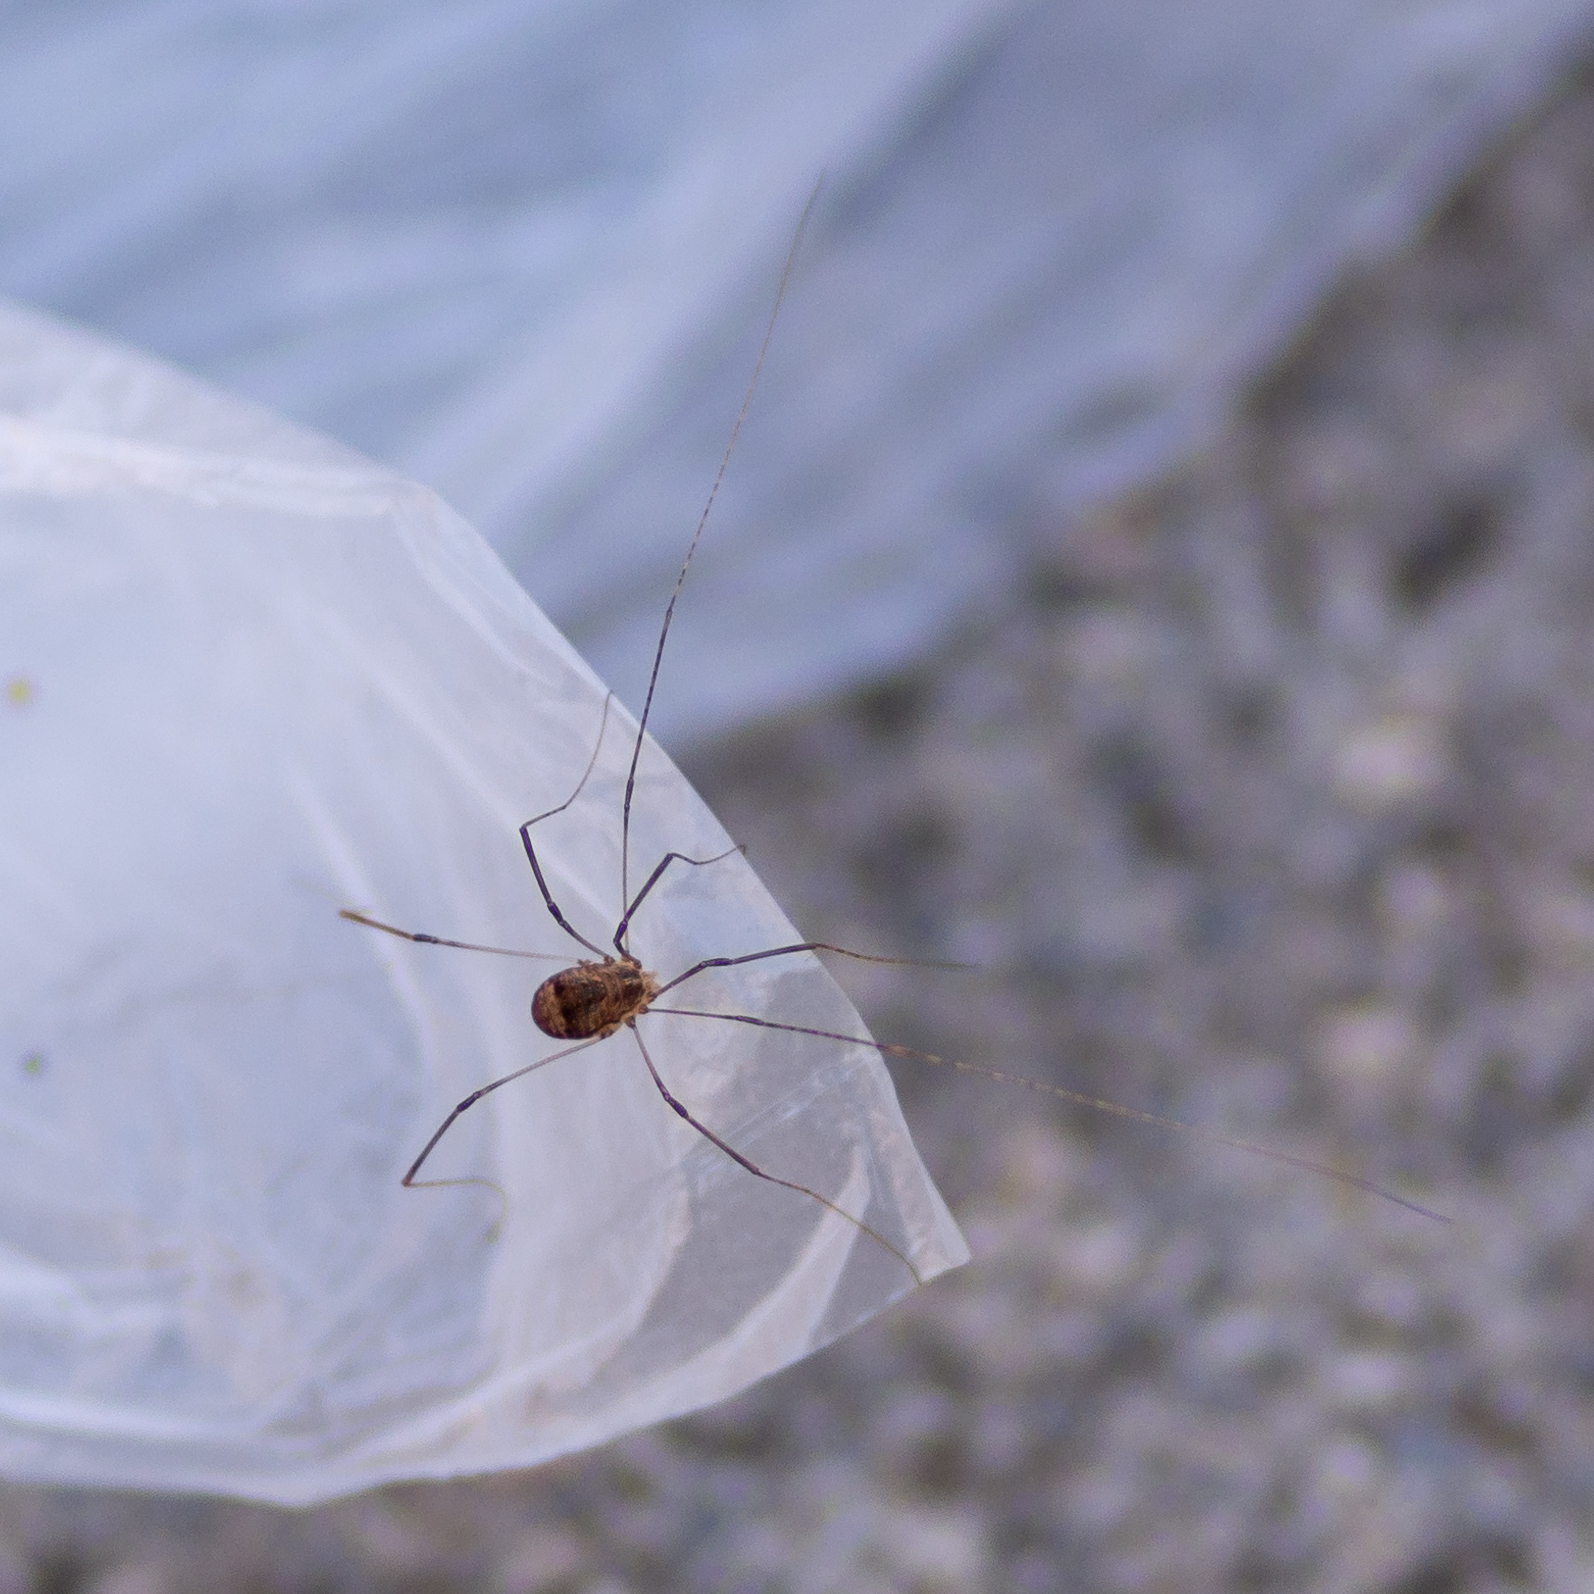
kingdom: Animalia
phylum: Arthropoda
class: Arachnida
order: Opiliones
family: Sclerosomatidae
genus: Leiobunum
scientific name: Leiobunum blackwalli
